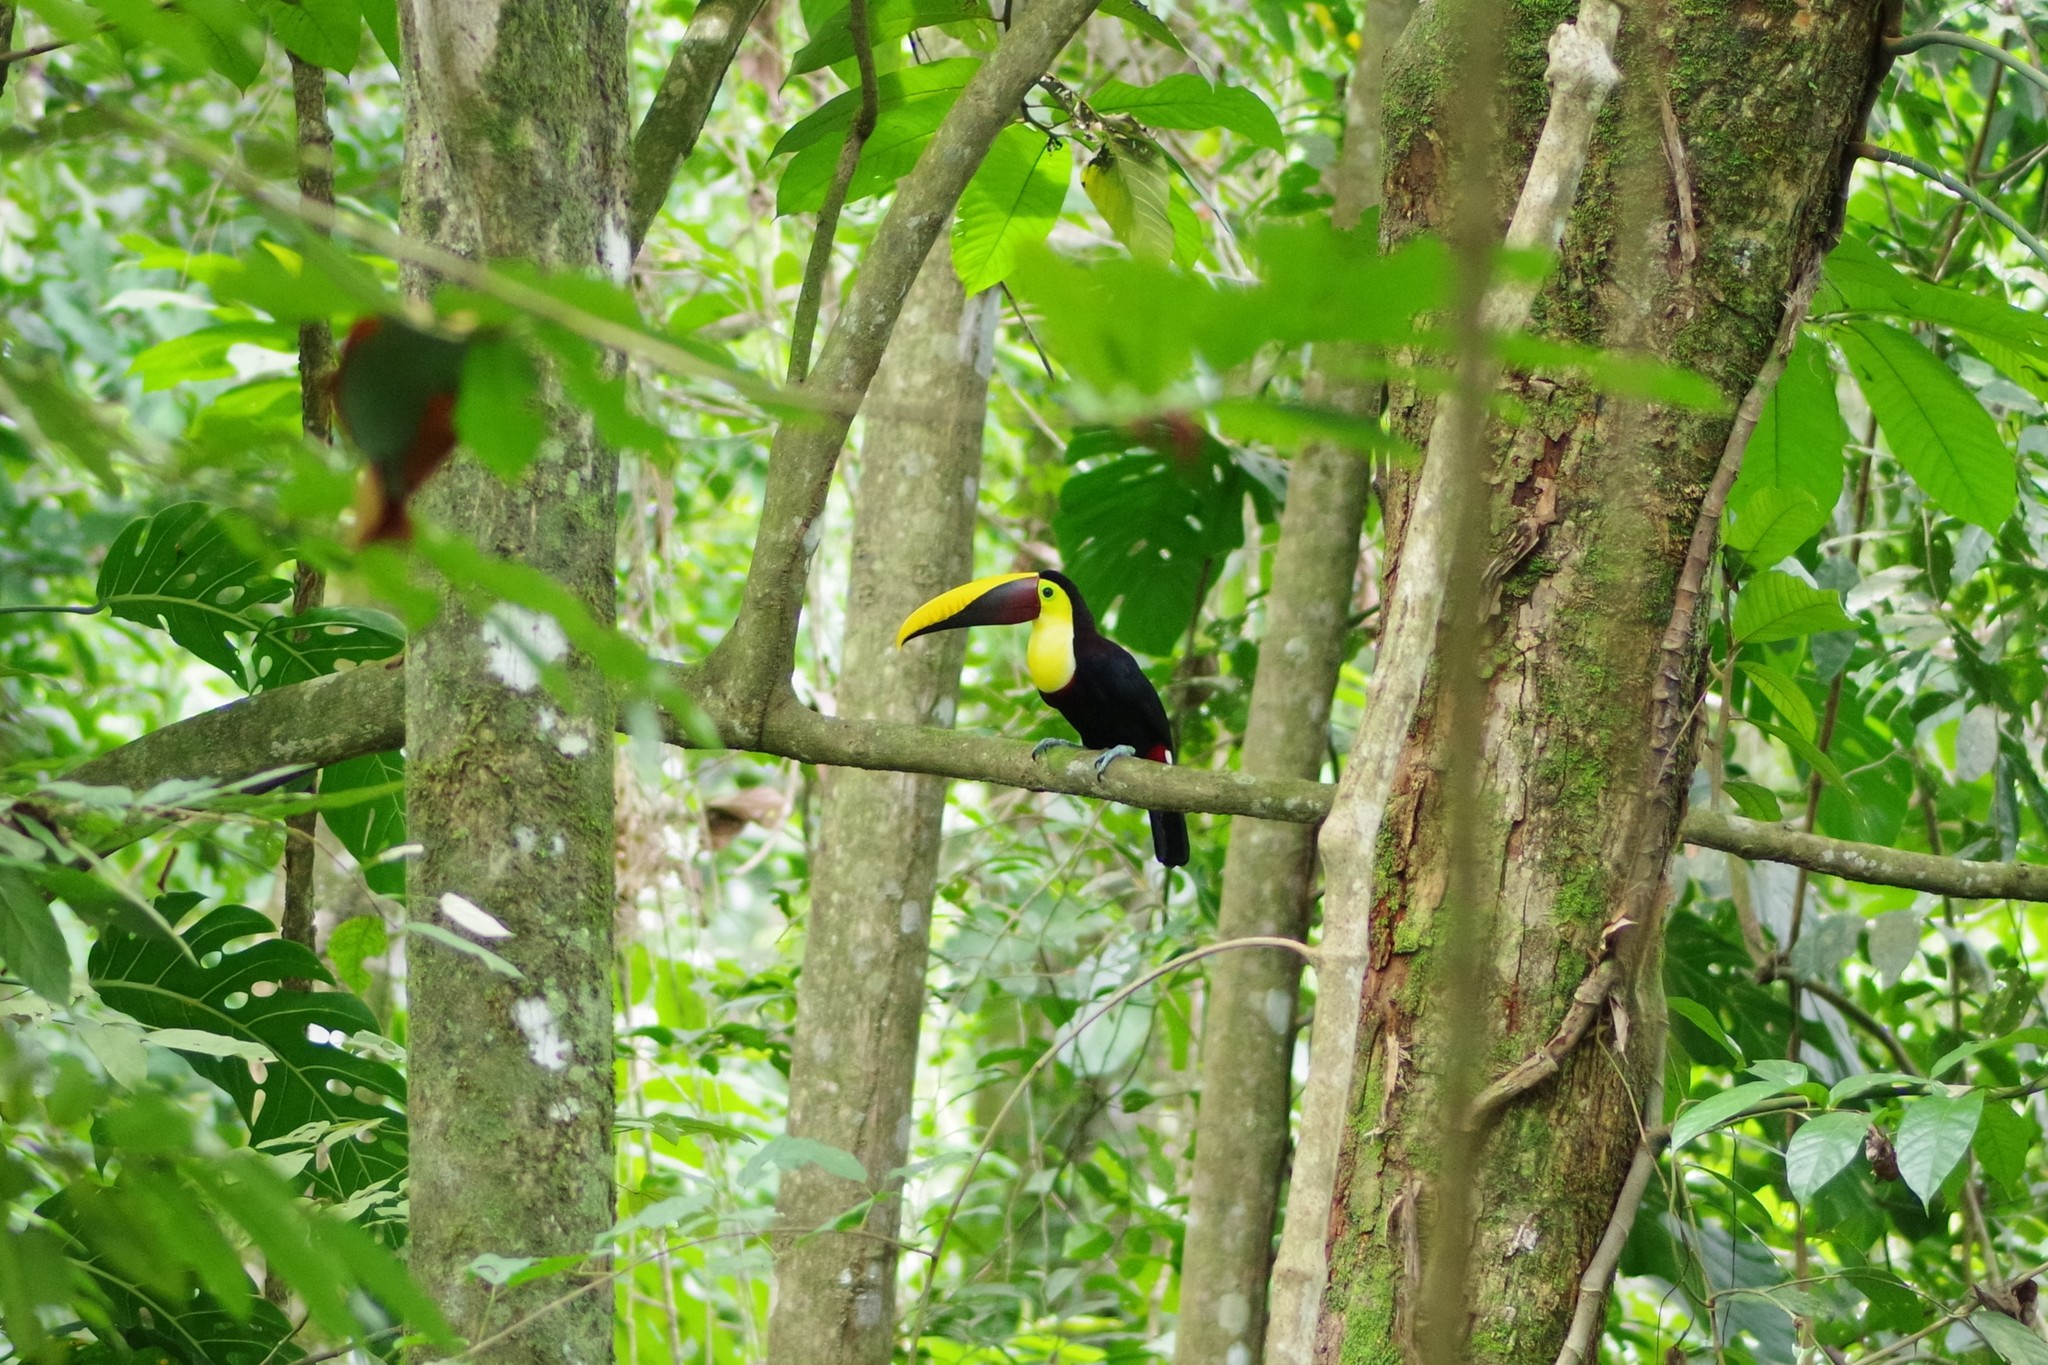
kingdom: Animalia
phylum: Chordata
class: Aves
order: Piciformes
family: Ramphastidae
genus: Ramphastos
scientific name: Ramphastos ambiguus
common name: Yellow-throated toucan
